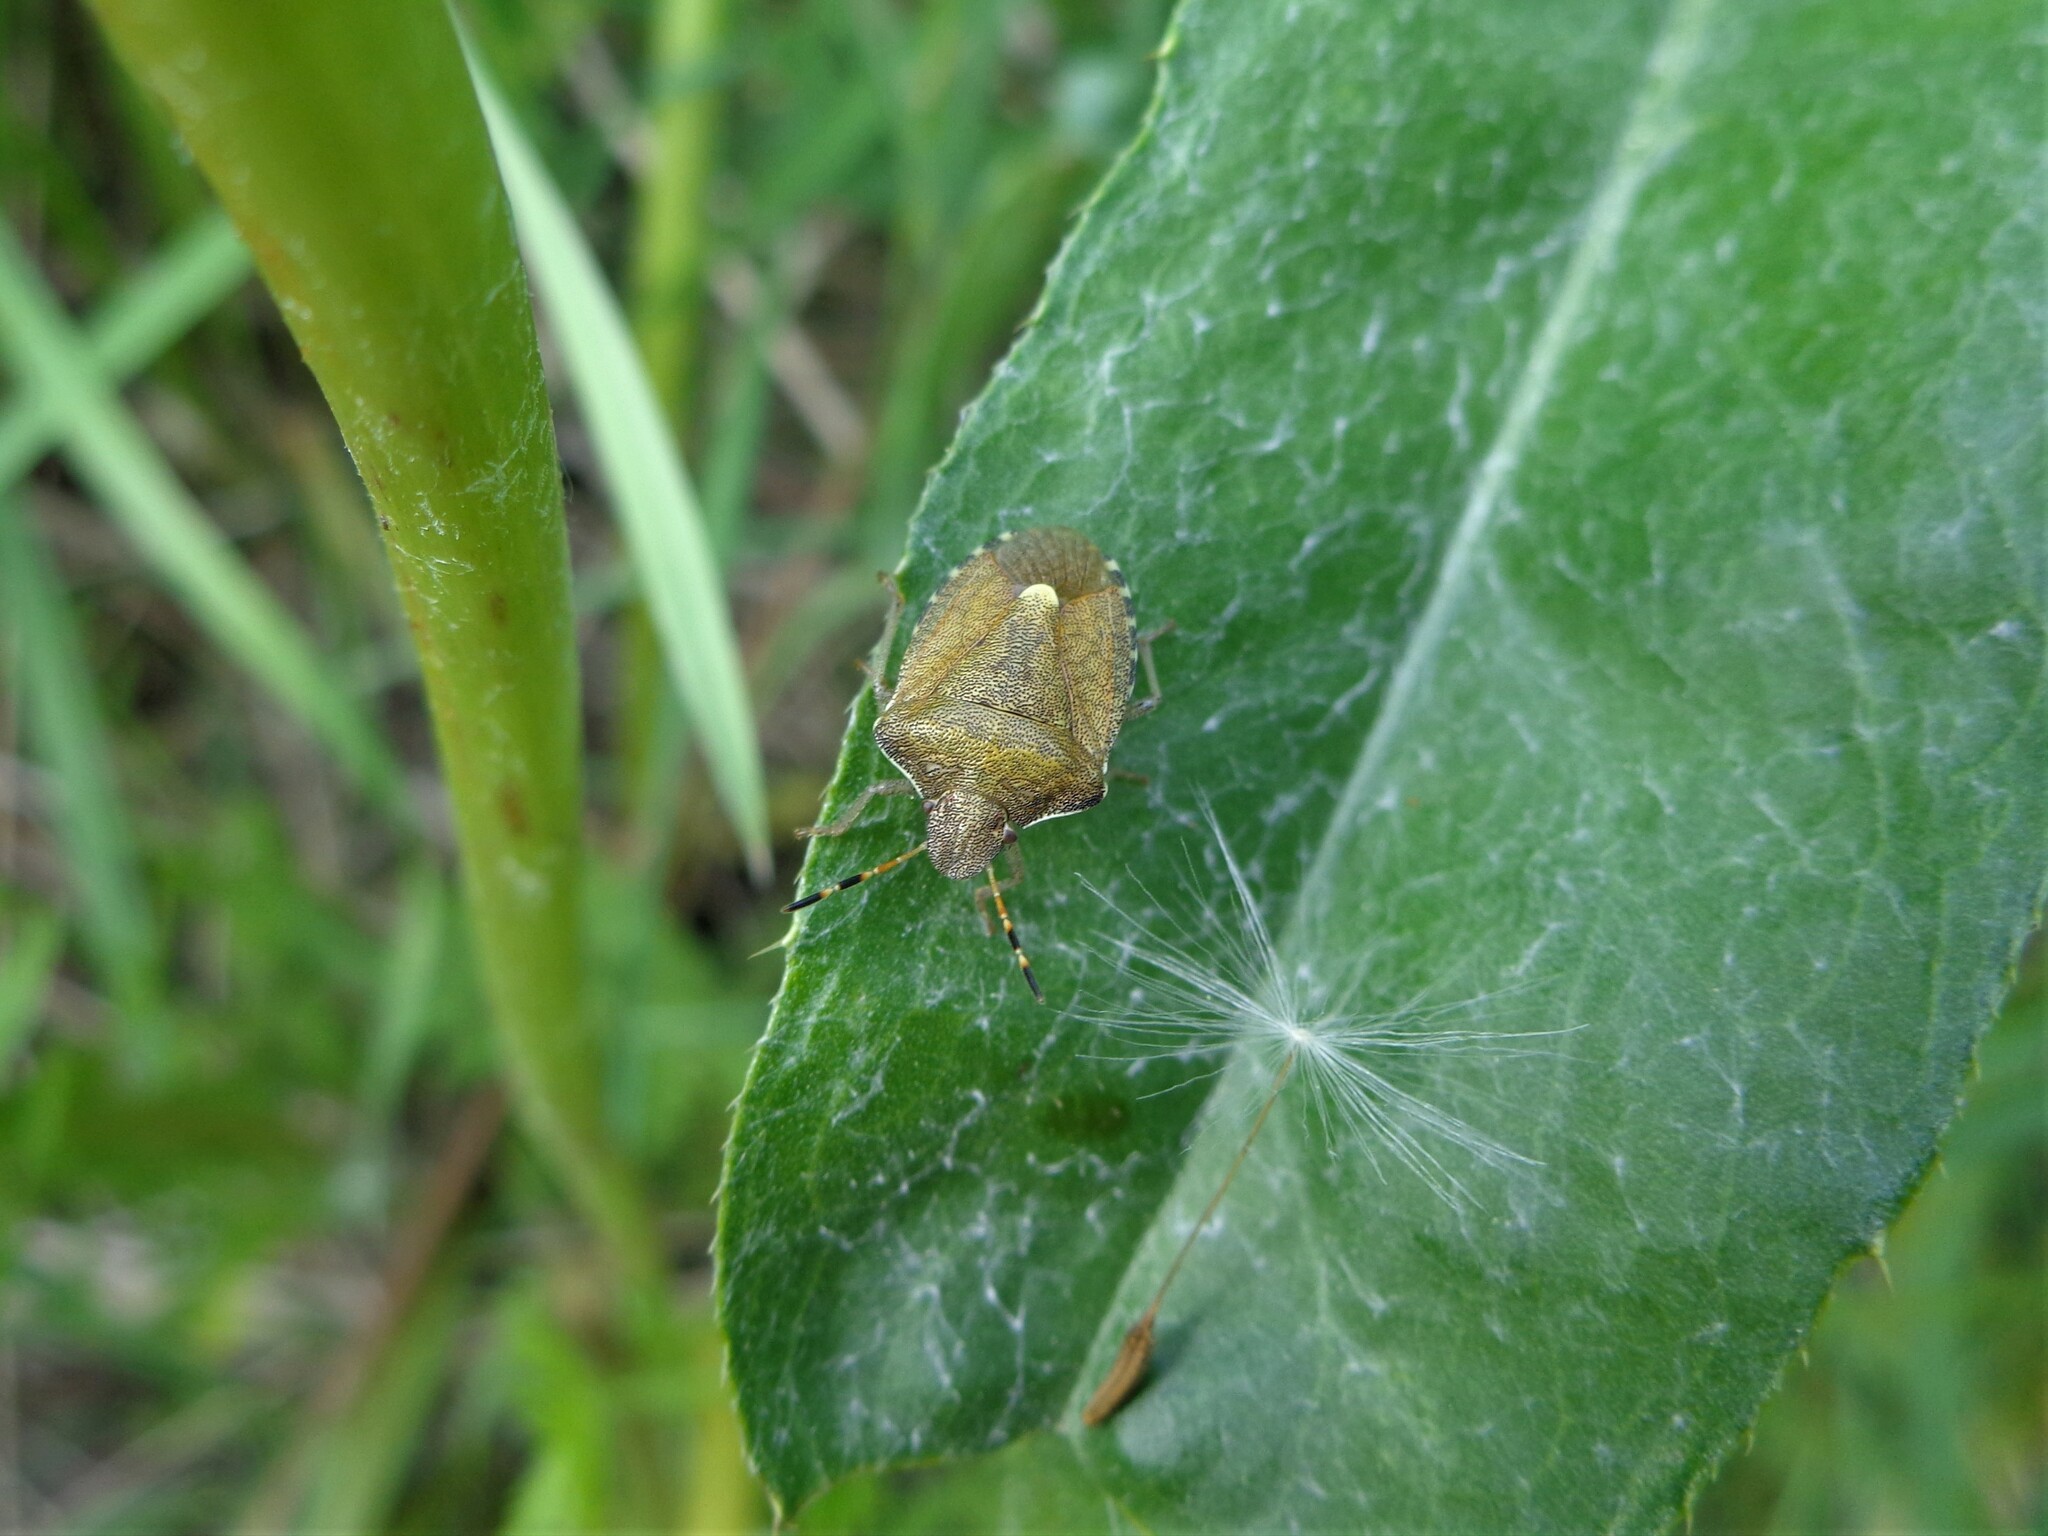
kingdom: Animalia
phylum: Arthropoda
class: Insecta
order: Hemiptera
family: Pentatomidae
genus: Holcostethus
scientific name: Holcostethus strictus
